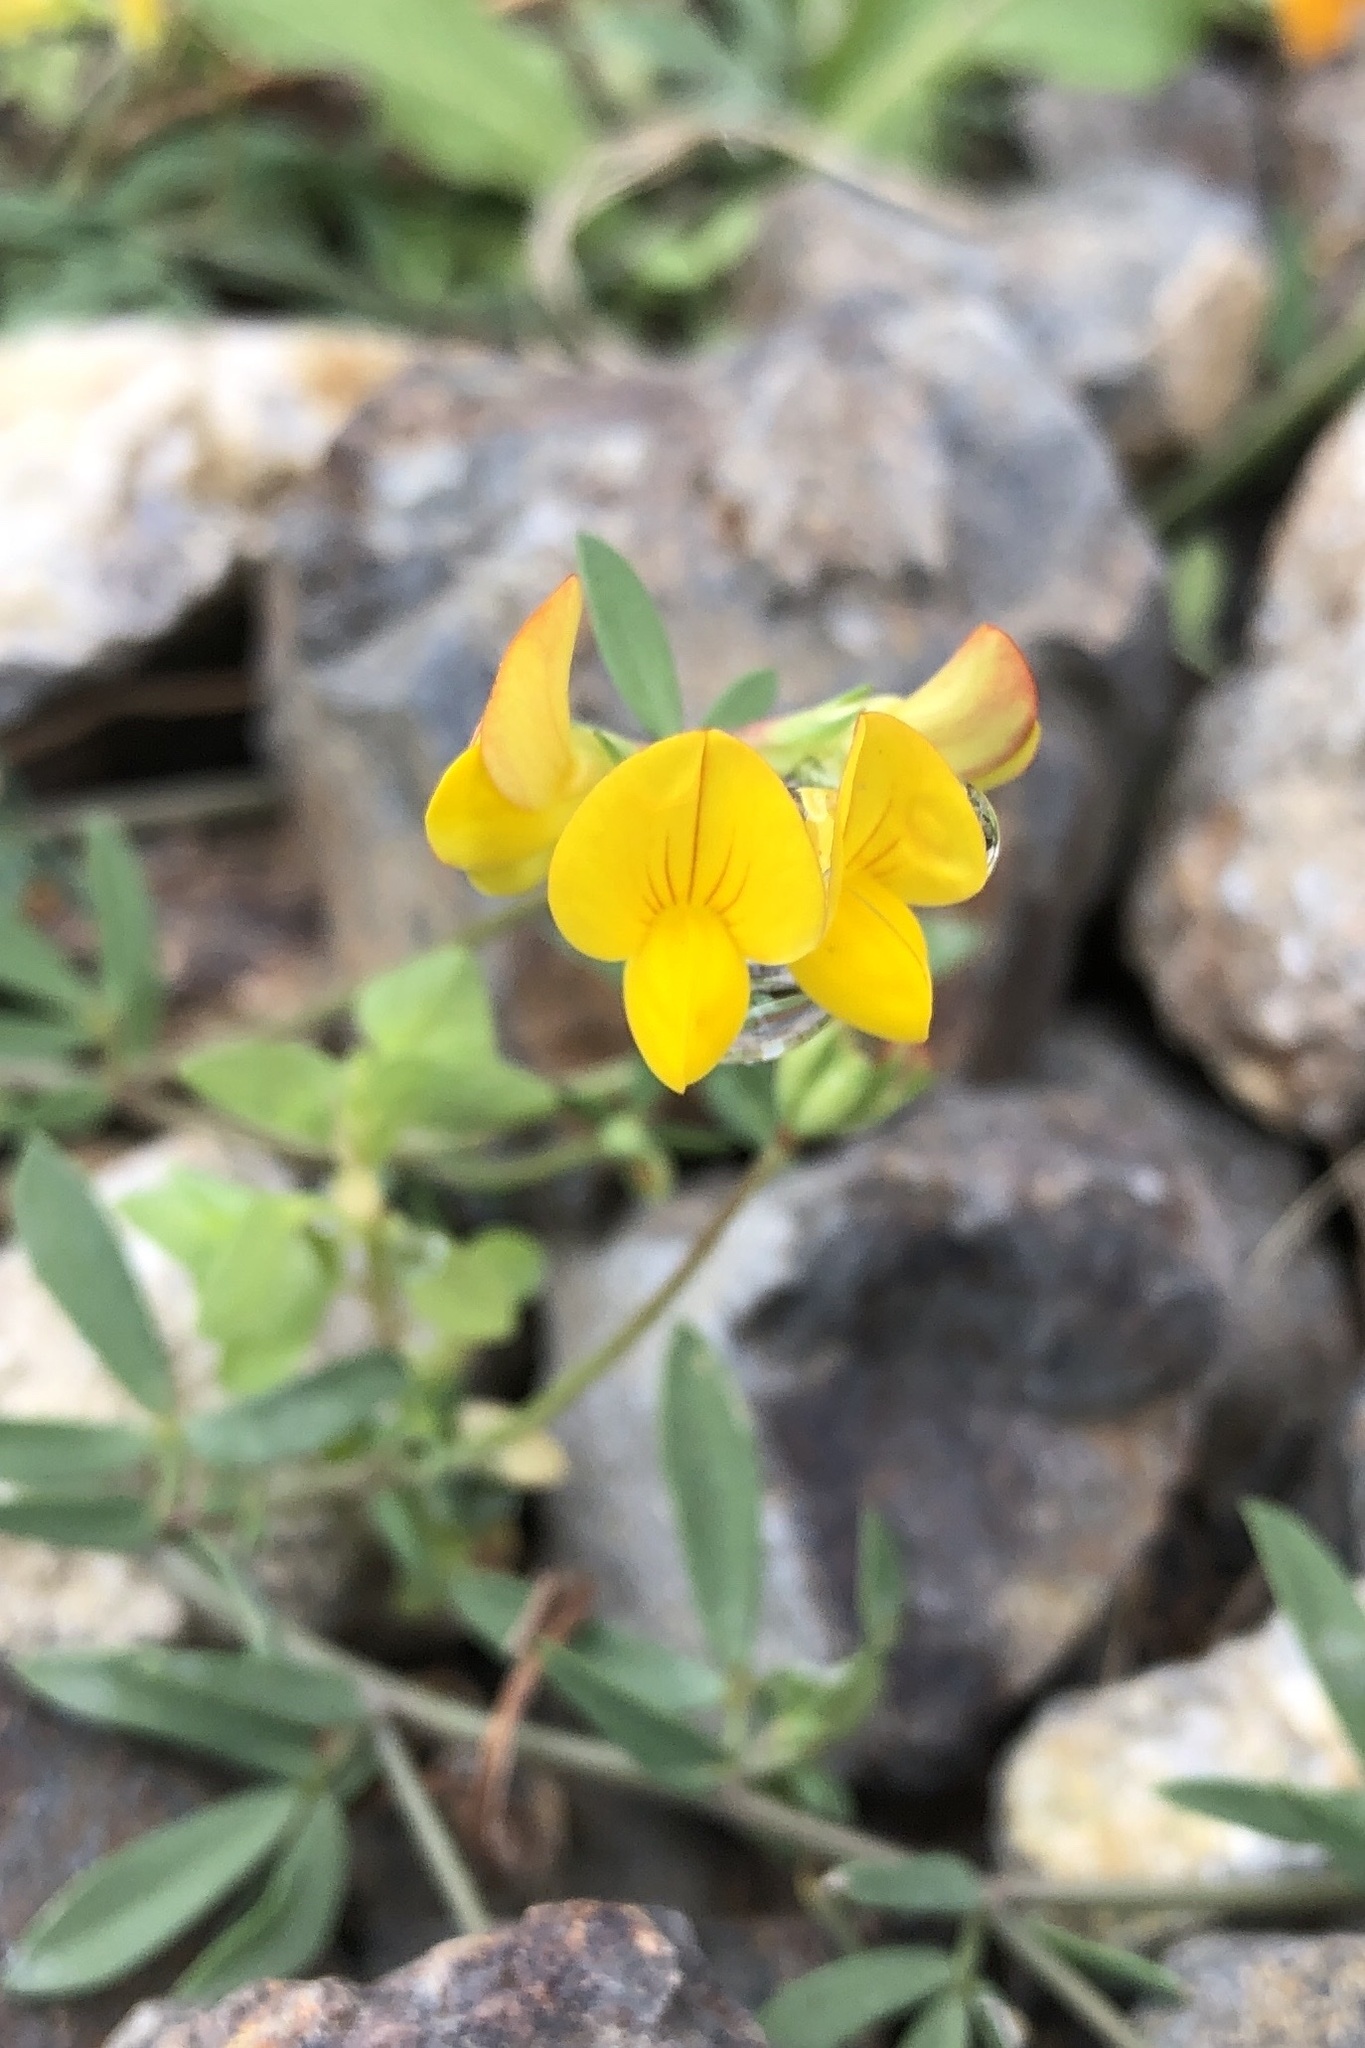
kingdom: Plantae
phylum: Tracheophyta
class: Magnoliopsida
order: Fabales
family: Fabaceae
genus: Lotus
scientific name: Lotus corniculatus
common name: Common bird's-foot-trefoil
